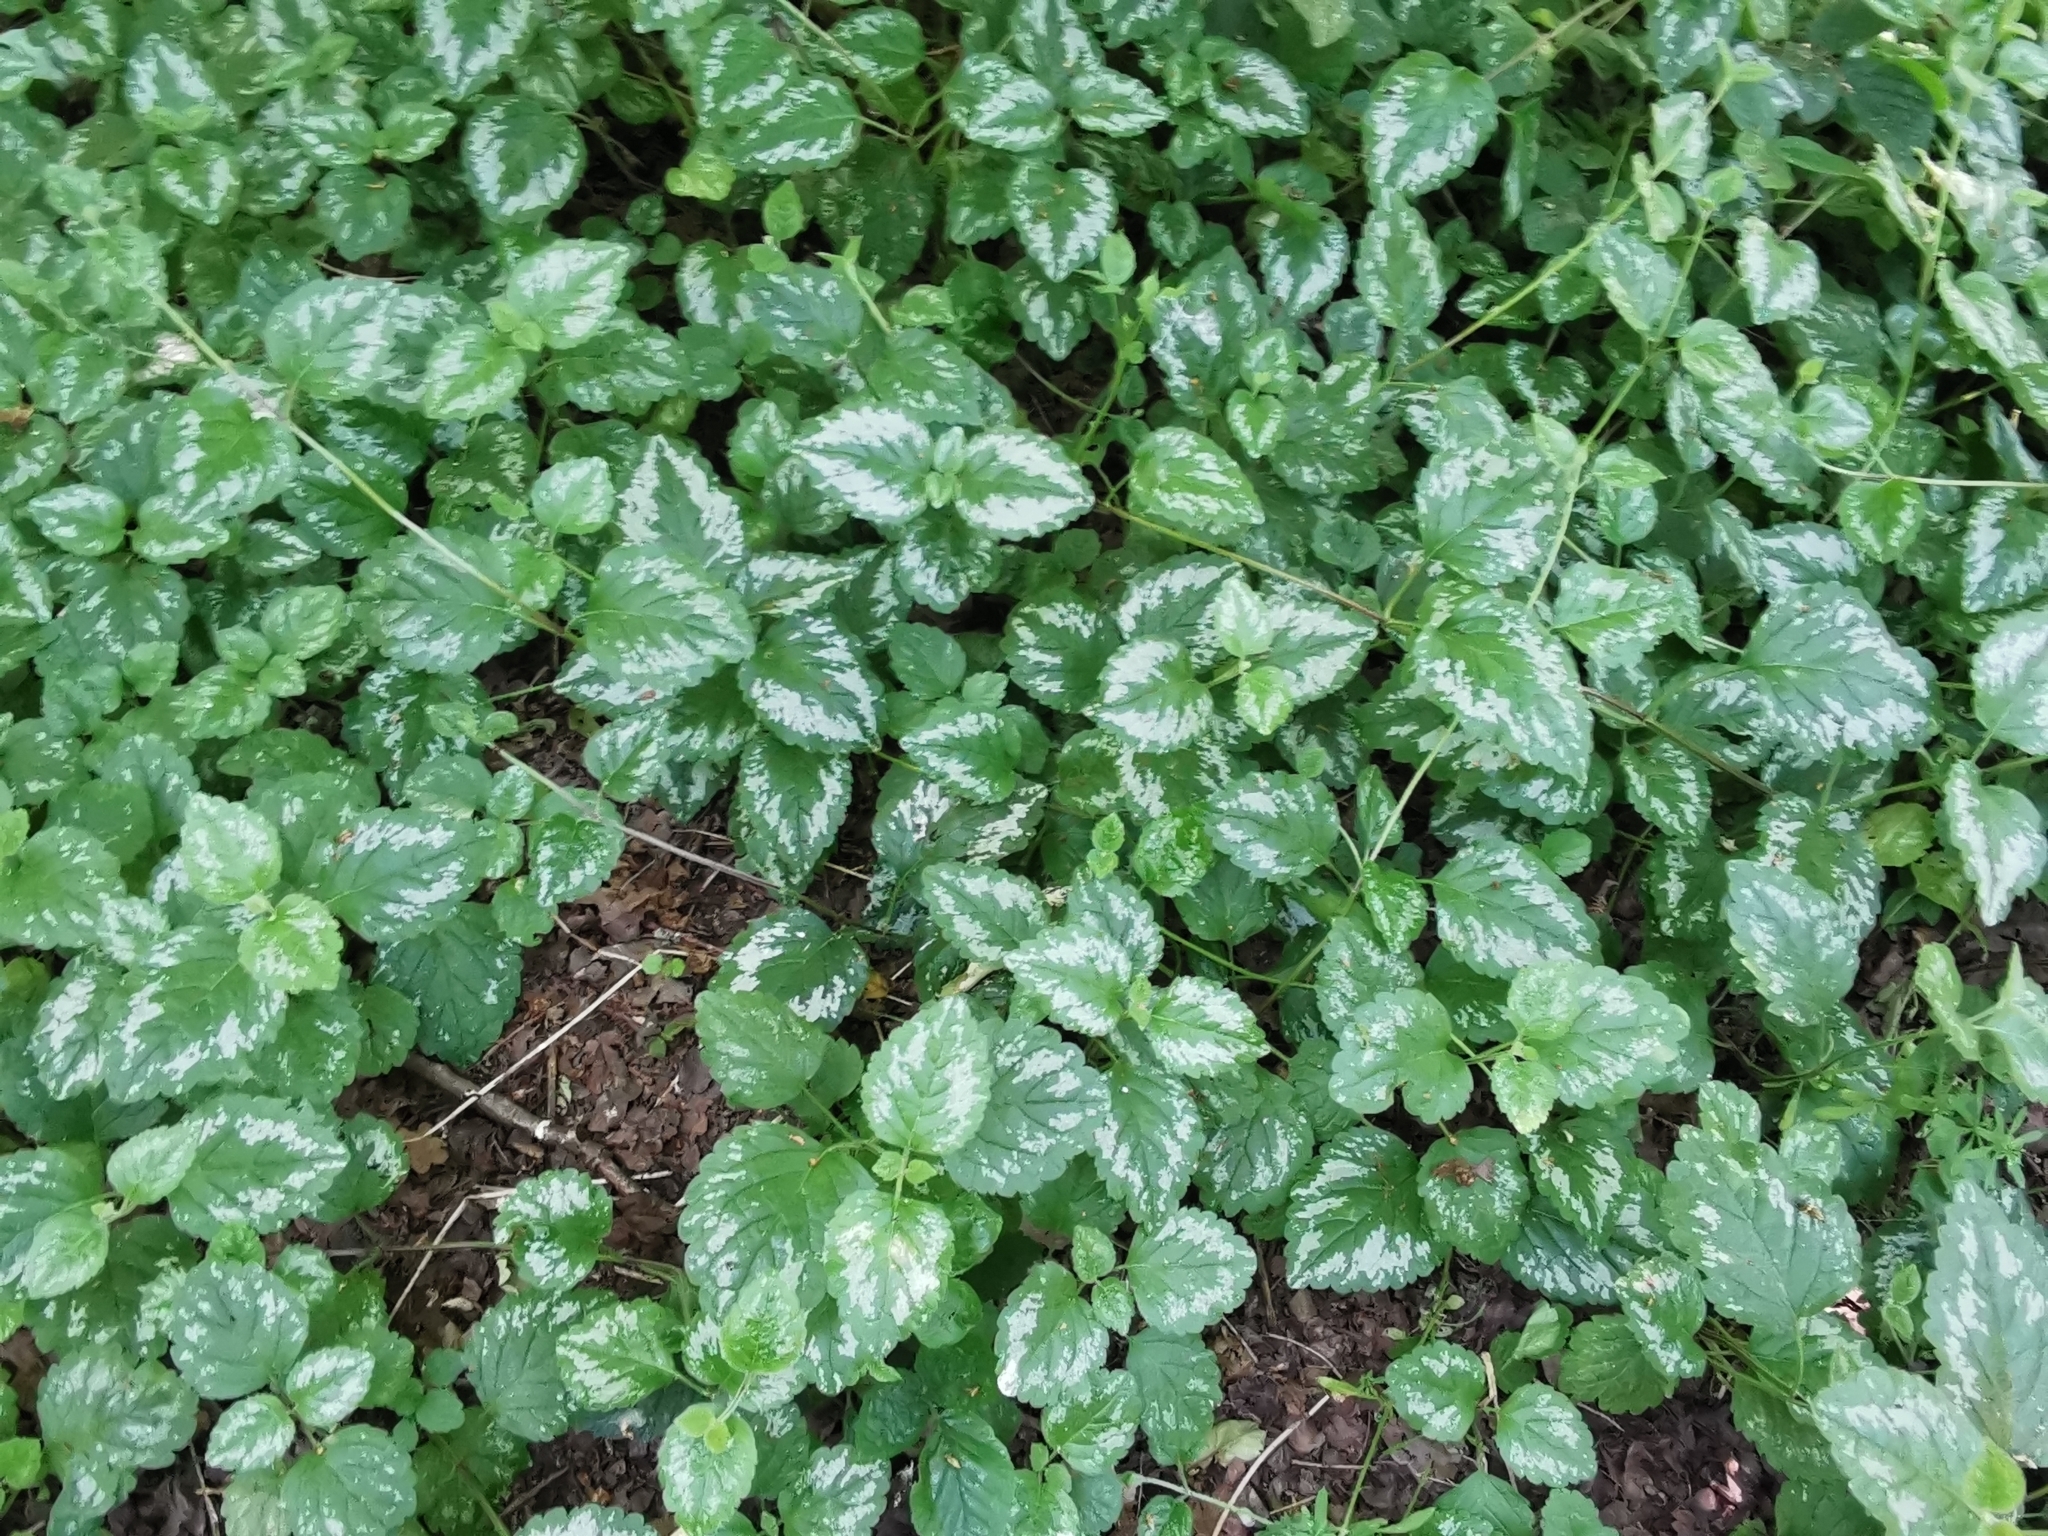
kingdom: Plantae
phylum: Tracheophyta
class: Magnoliopsida
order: Lamiales
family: Lamiaceae
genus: Lamium
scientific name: Lamium galeobdolon
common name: Yellow archangel
